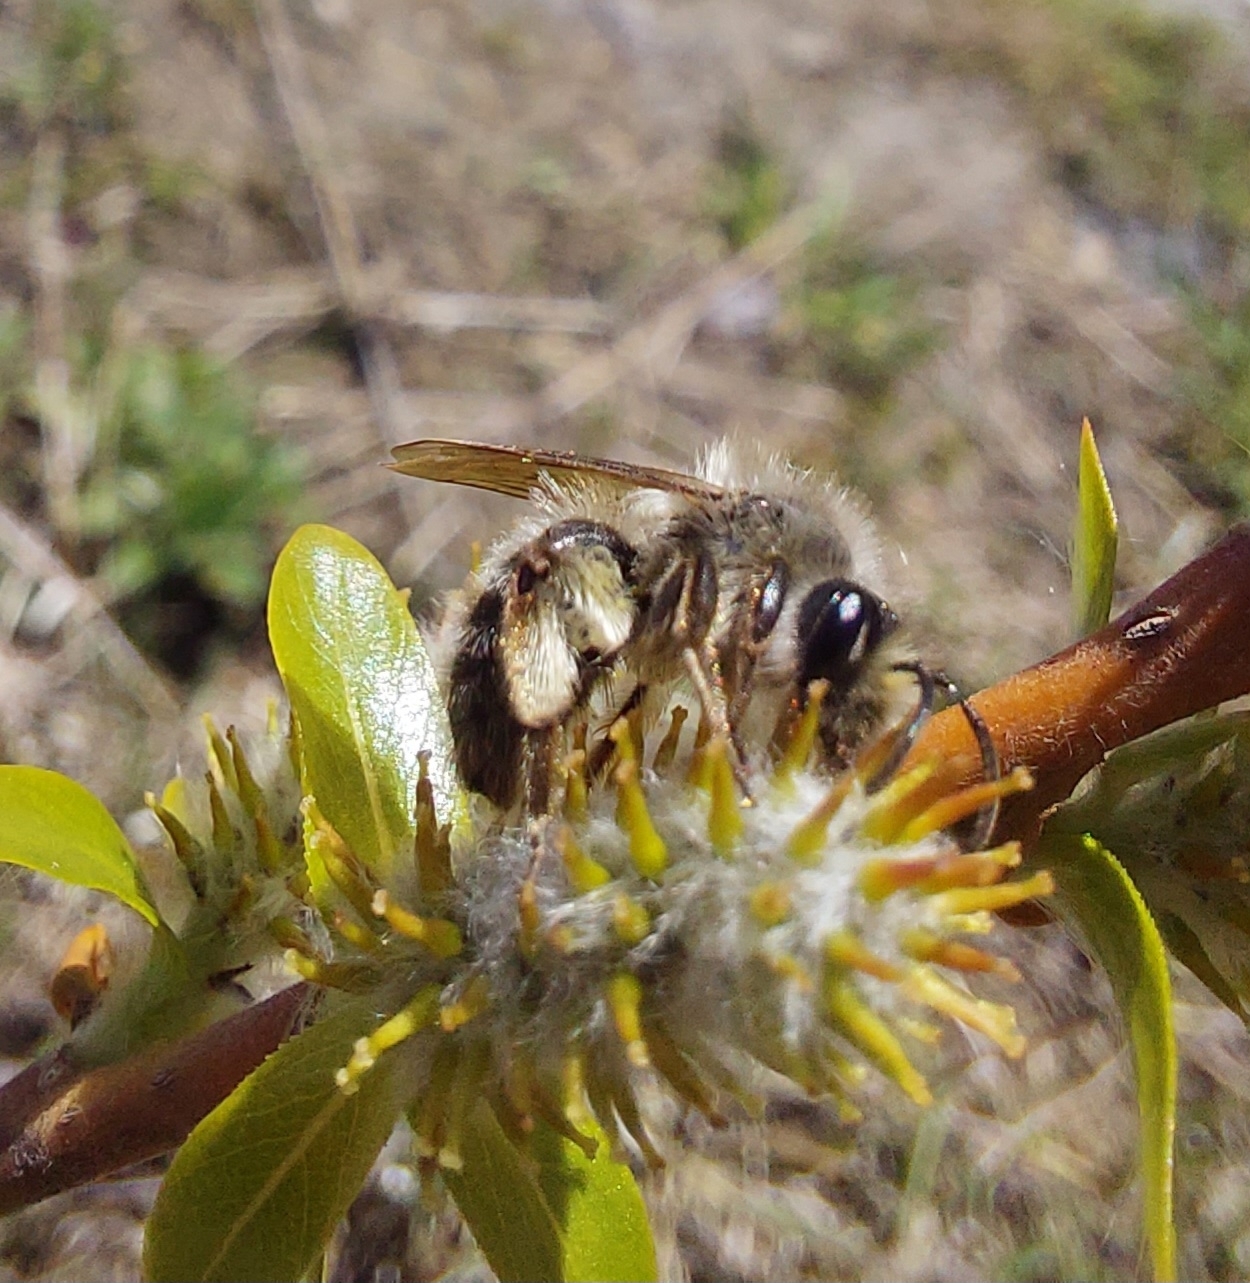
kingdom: Animalia
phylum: Arthropoda
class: Insecta
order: Hymenoptera
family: Andrenidae
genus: Andrena
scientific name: Andrena frigida
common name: Frigid mining bee
